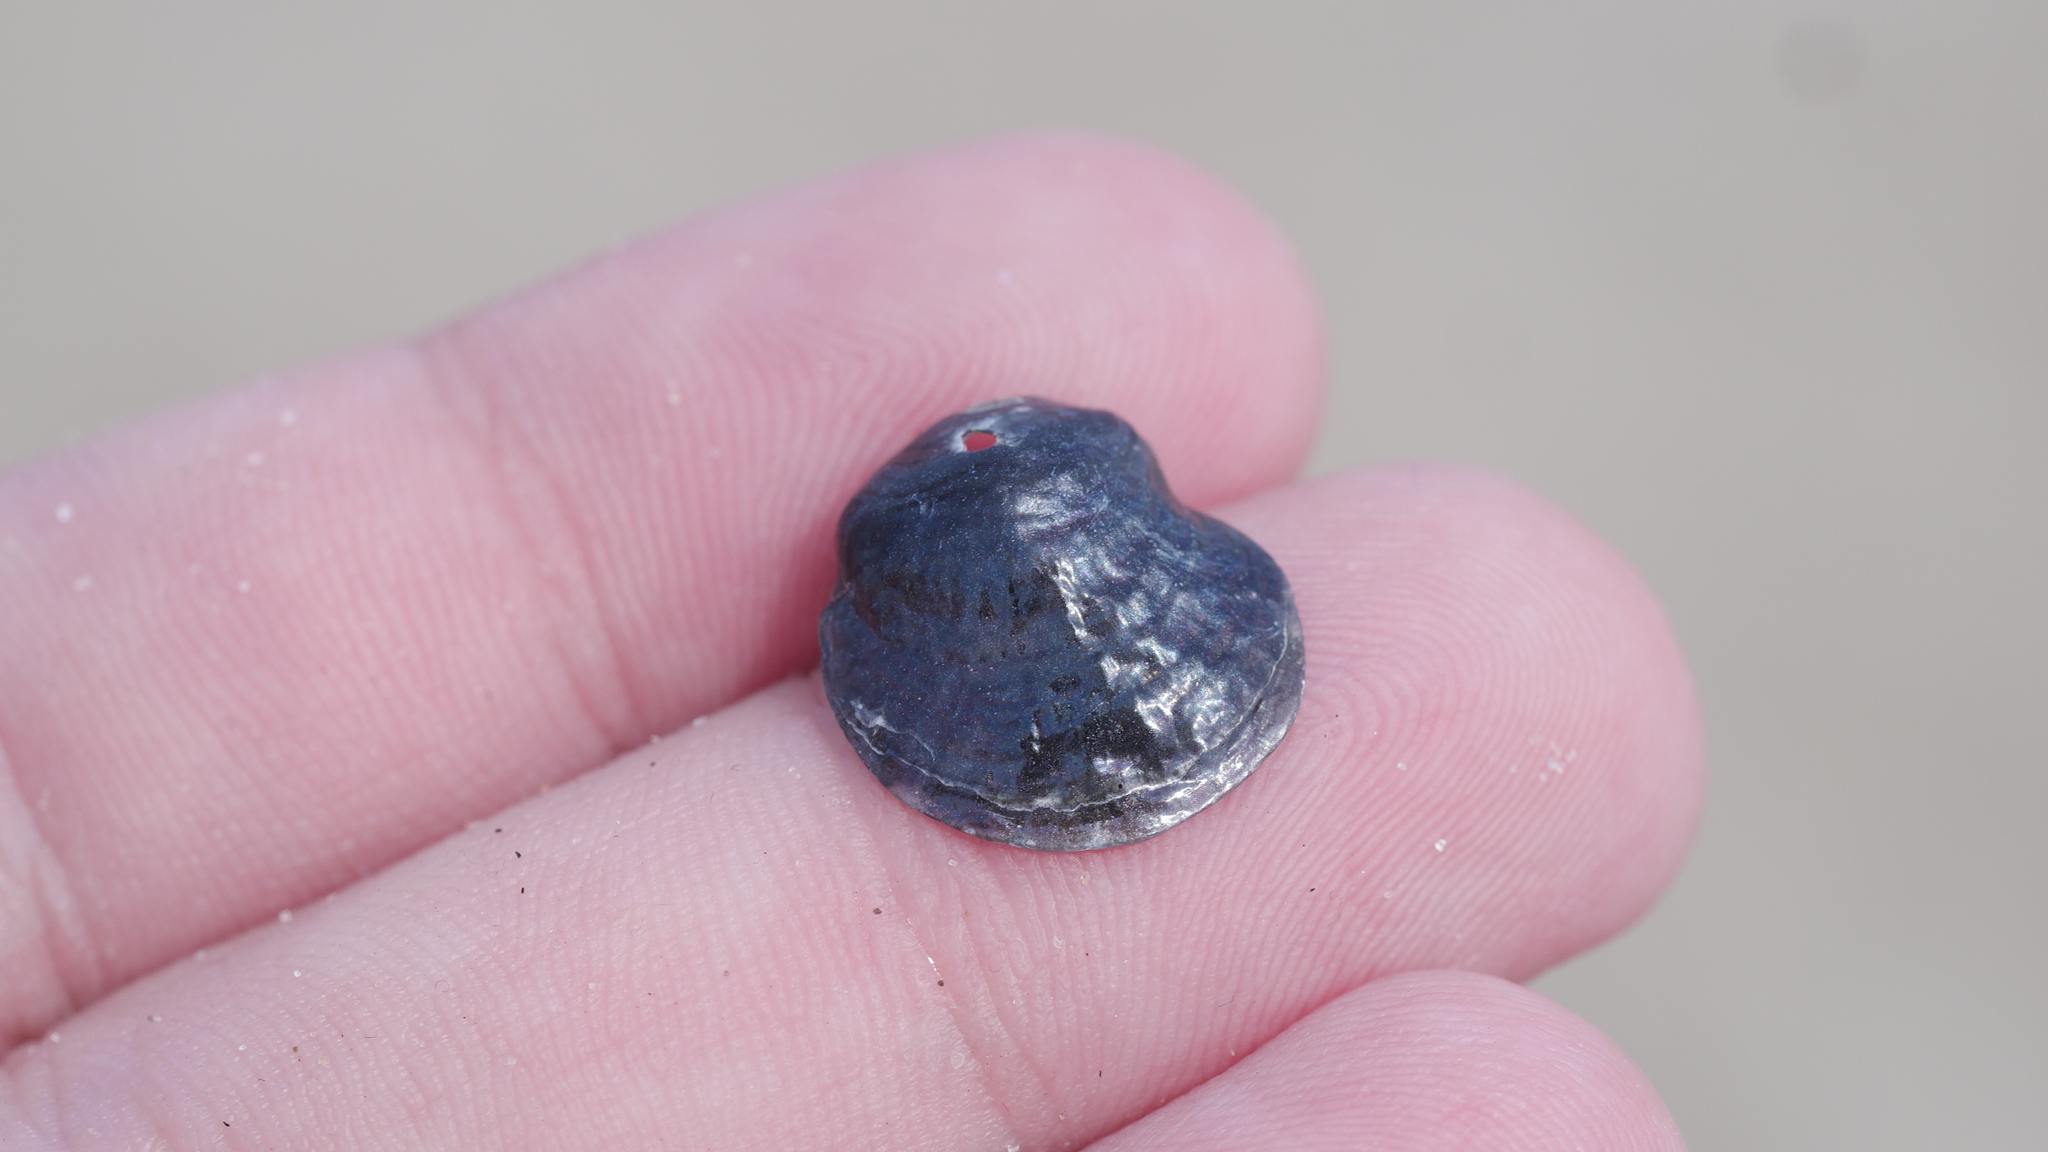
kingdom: Animalia
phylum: Mollusca
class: Bivalvia
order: Pectinida
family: Anomiidae
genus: Anomia
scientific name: Anomia simplex
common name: Common jingle shell
